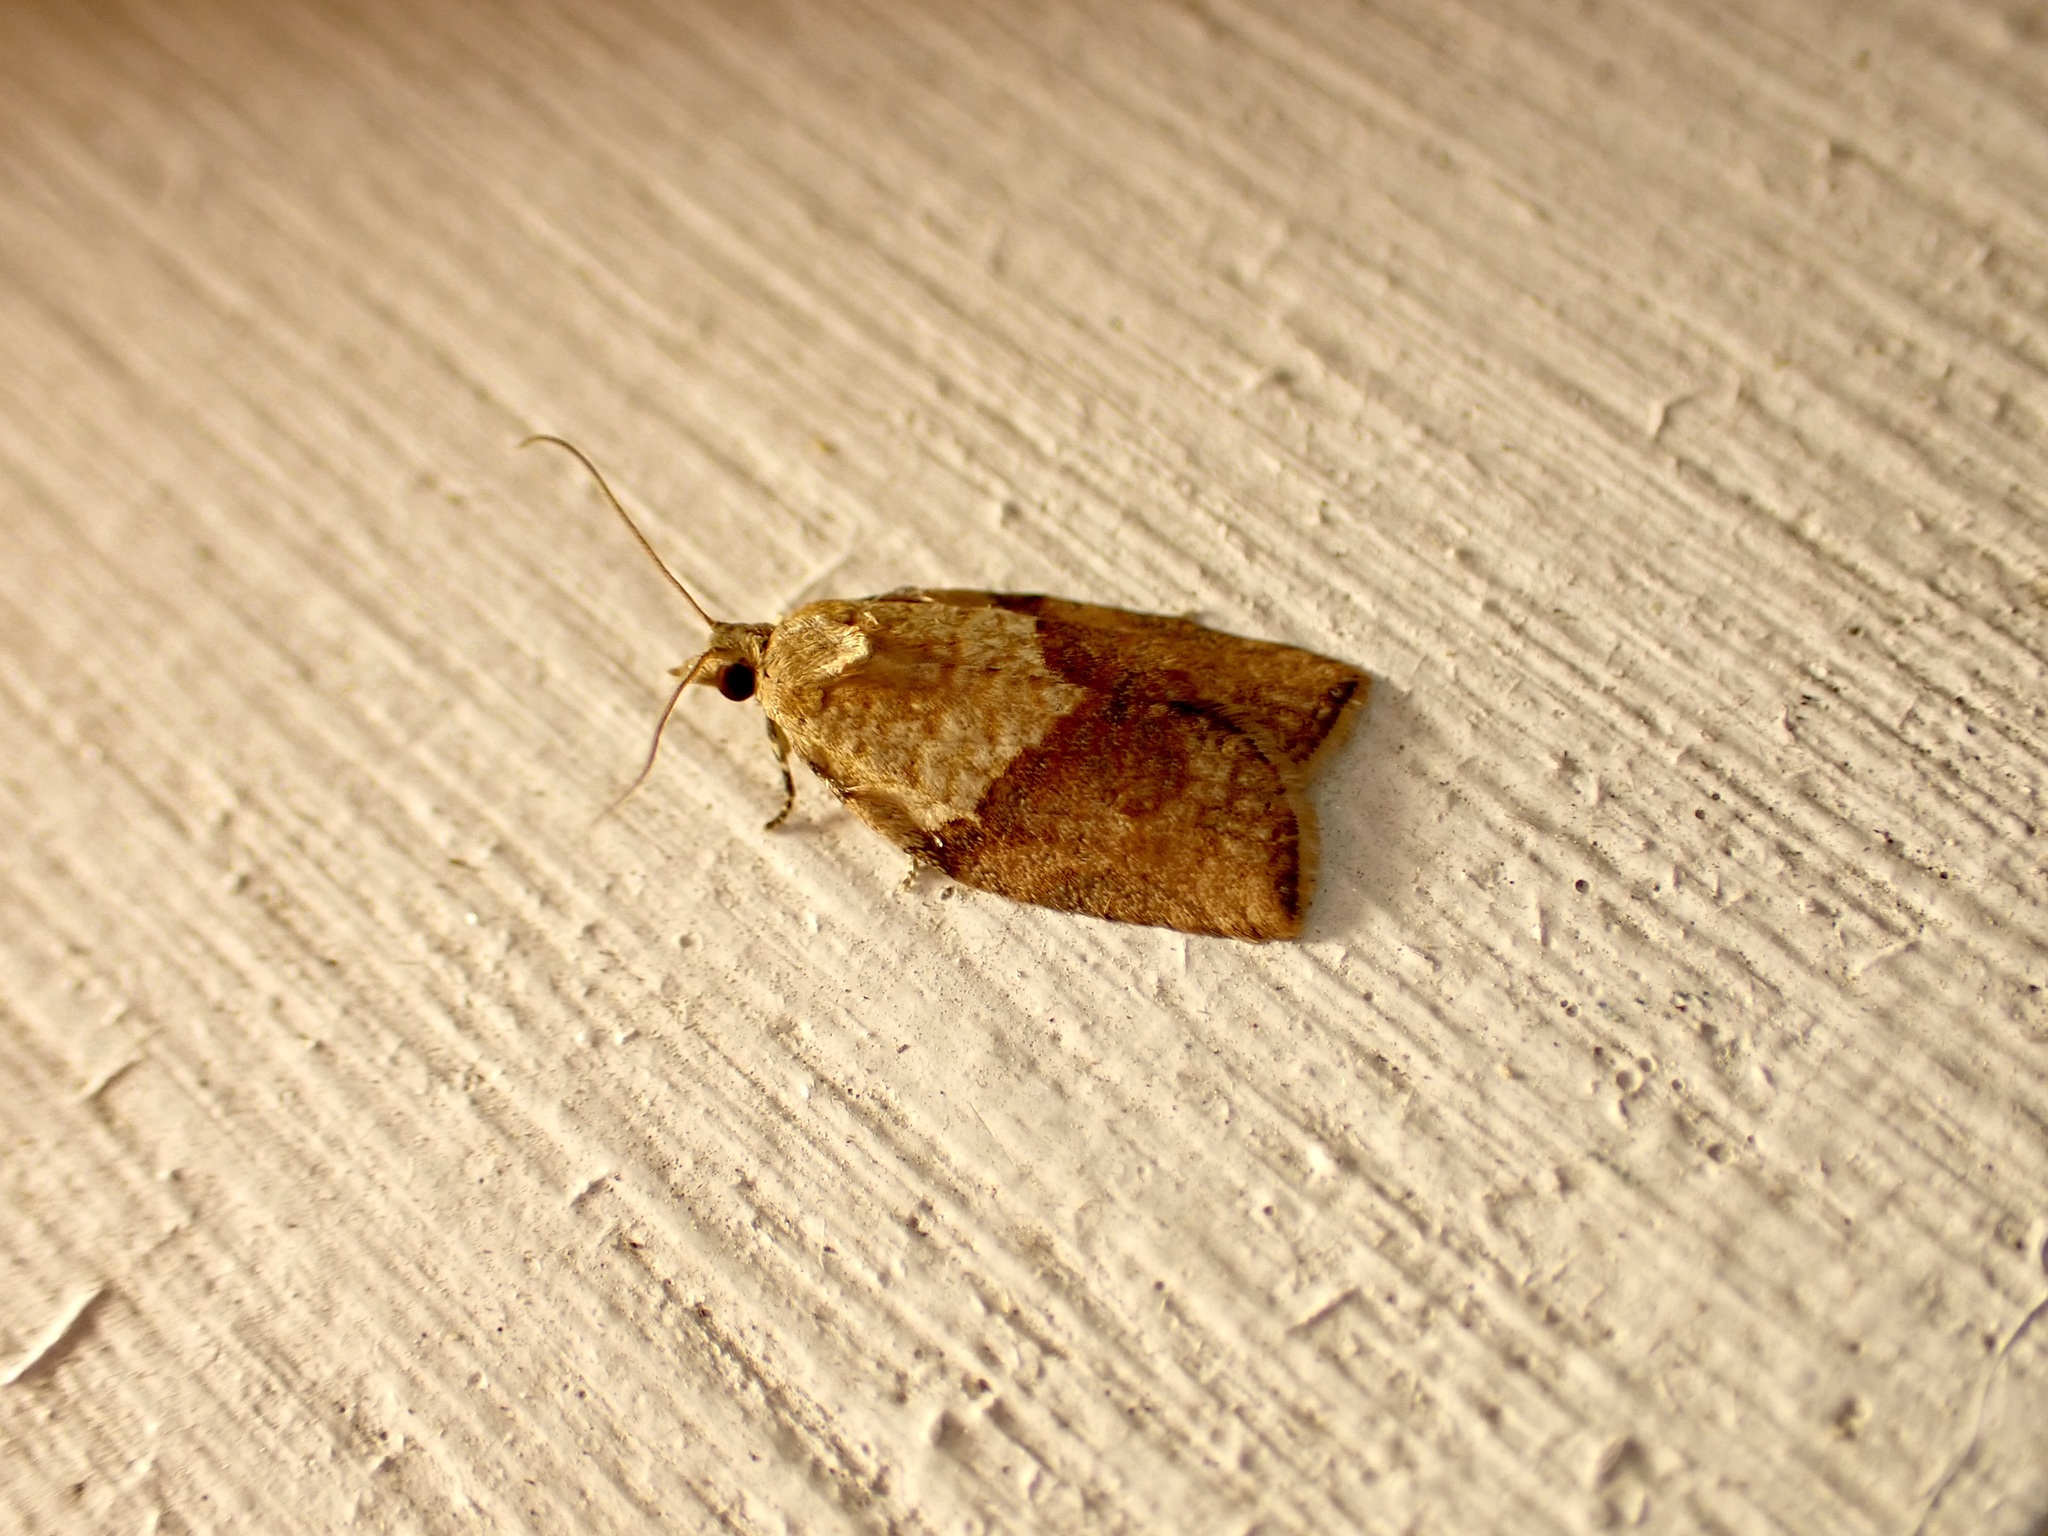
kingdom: Animalia
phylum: Arthropoda
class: Insecta
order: Lepidoptera
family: Tortricidae
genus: Epiphyas
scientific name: Epiphyas postvittana
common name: Light brown apple moth
